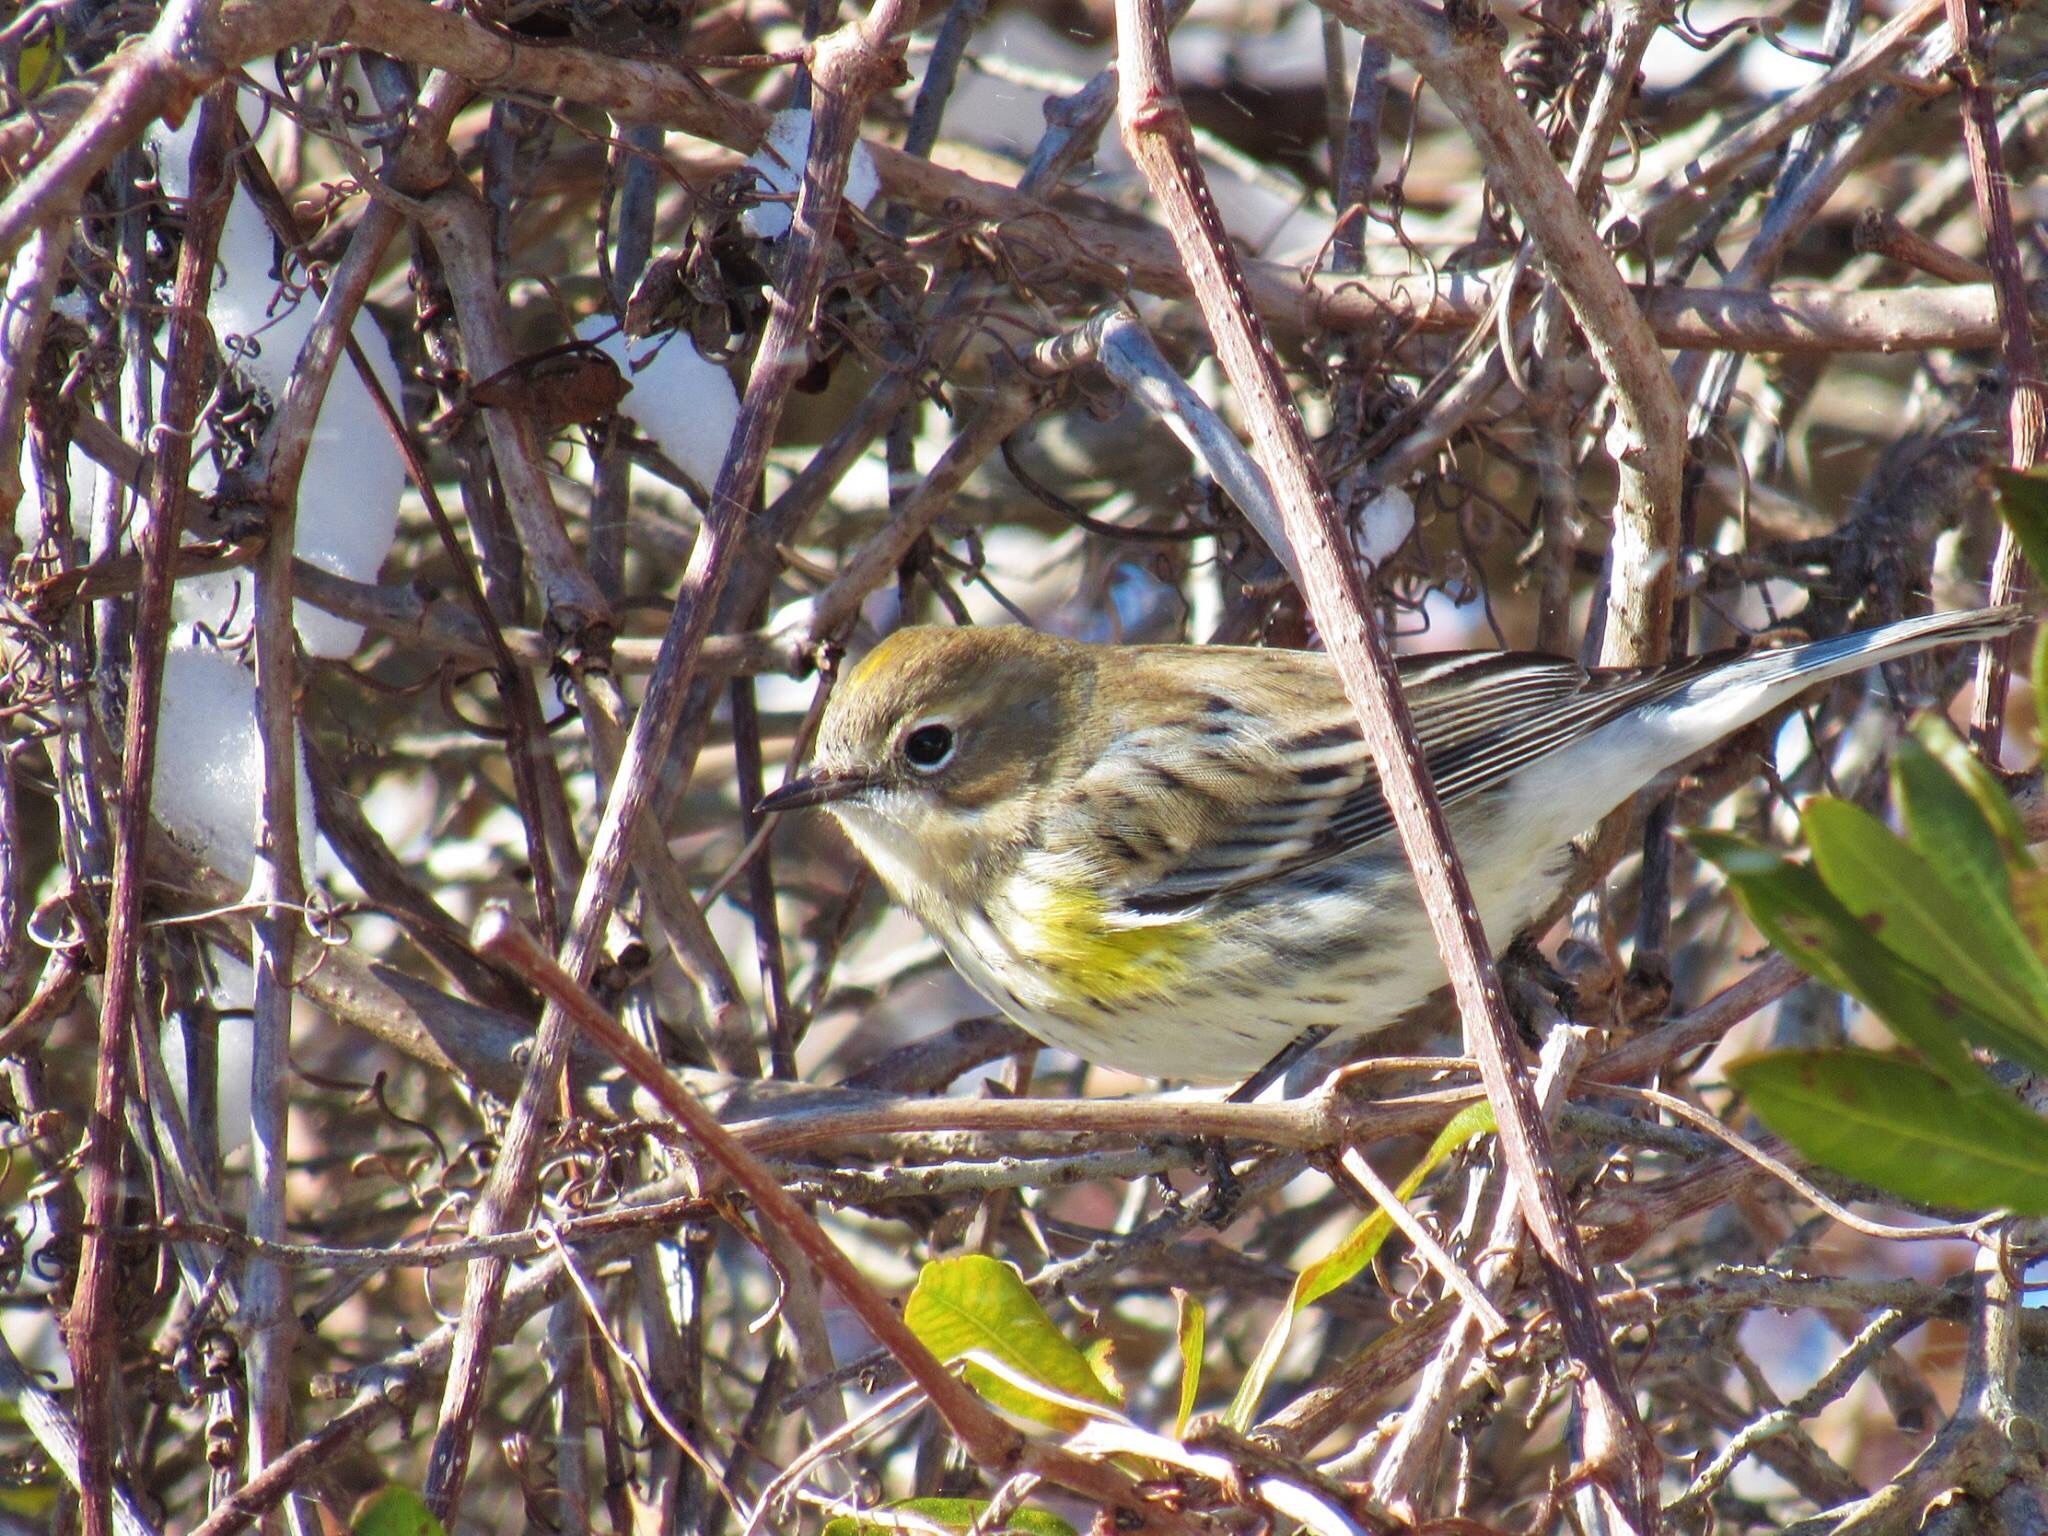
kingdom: Animalia
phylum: Chordata
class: Aves
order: Passeriformes
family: Parulidae
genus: Setophaga
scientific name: Setophaga coronata
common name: Myrtle warbler
